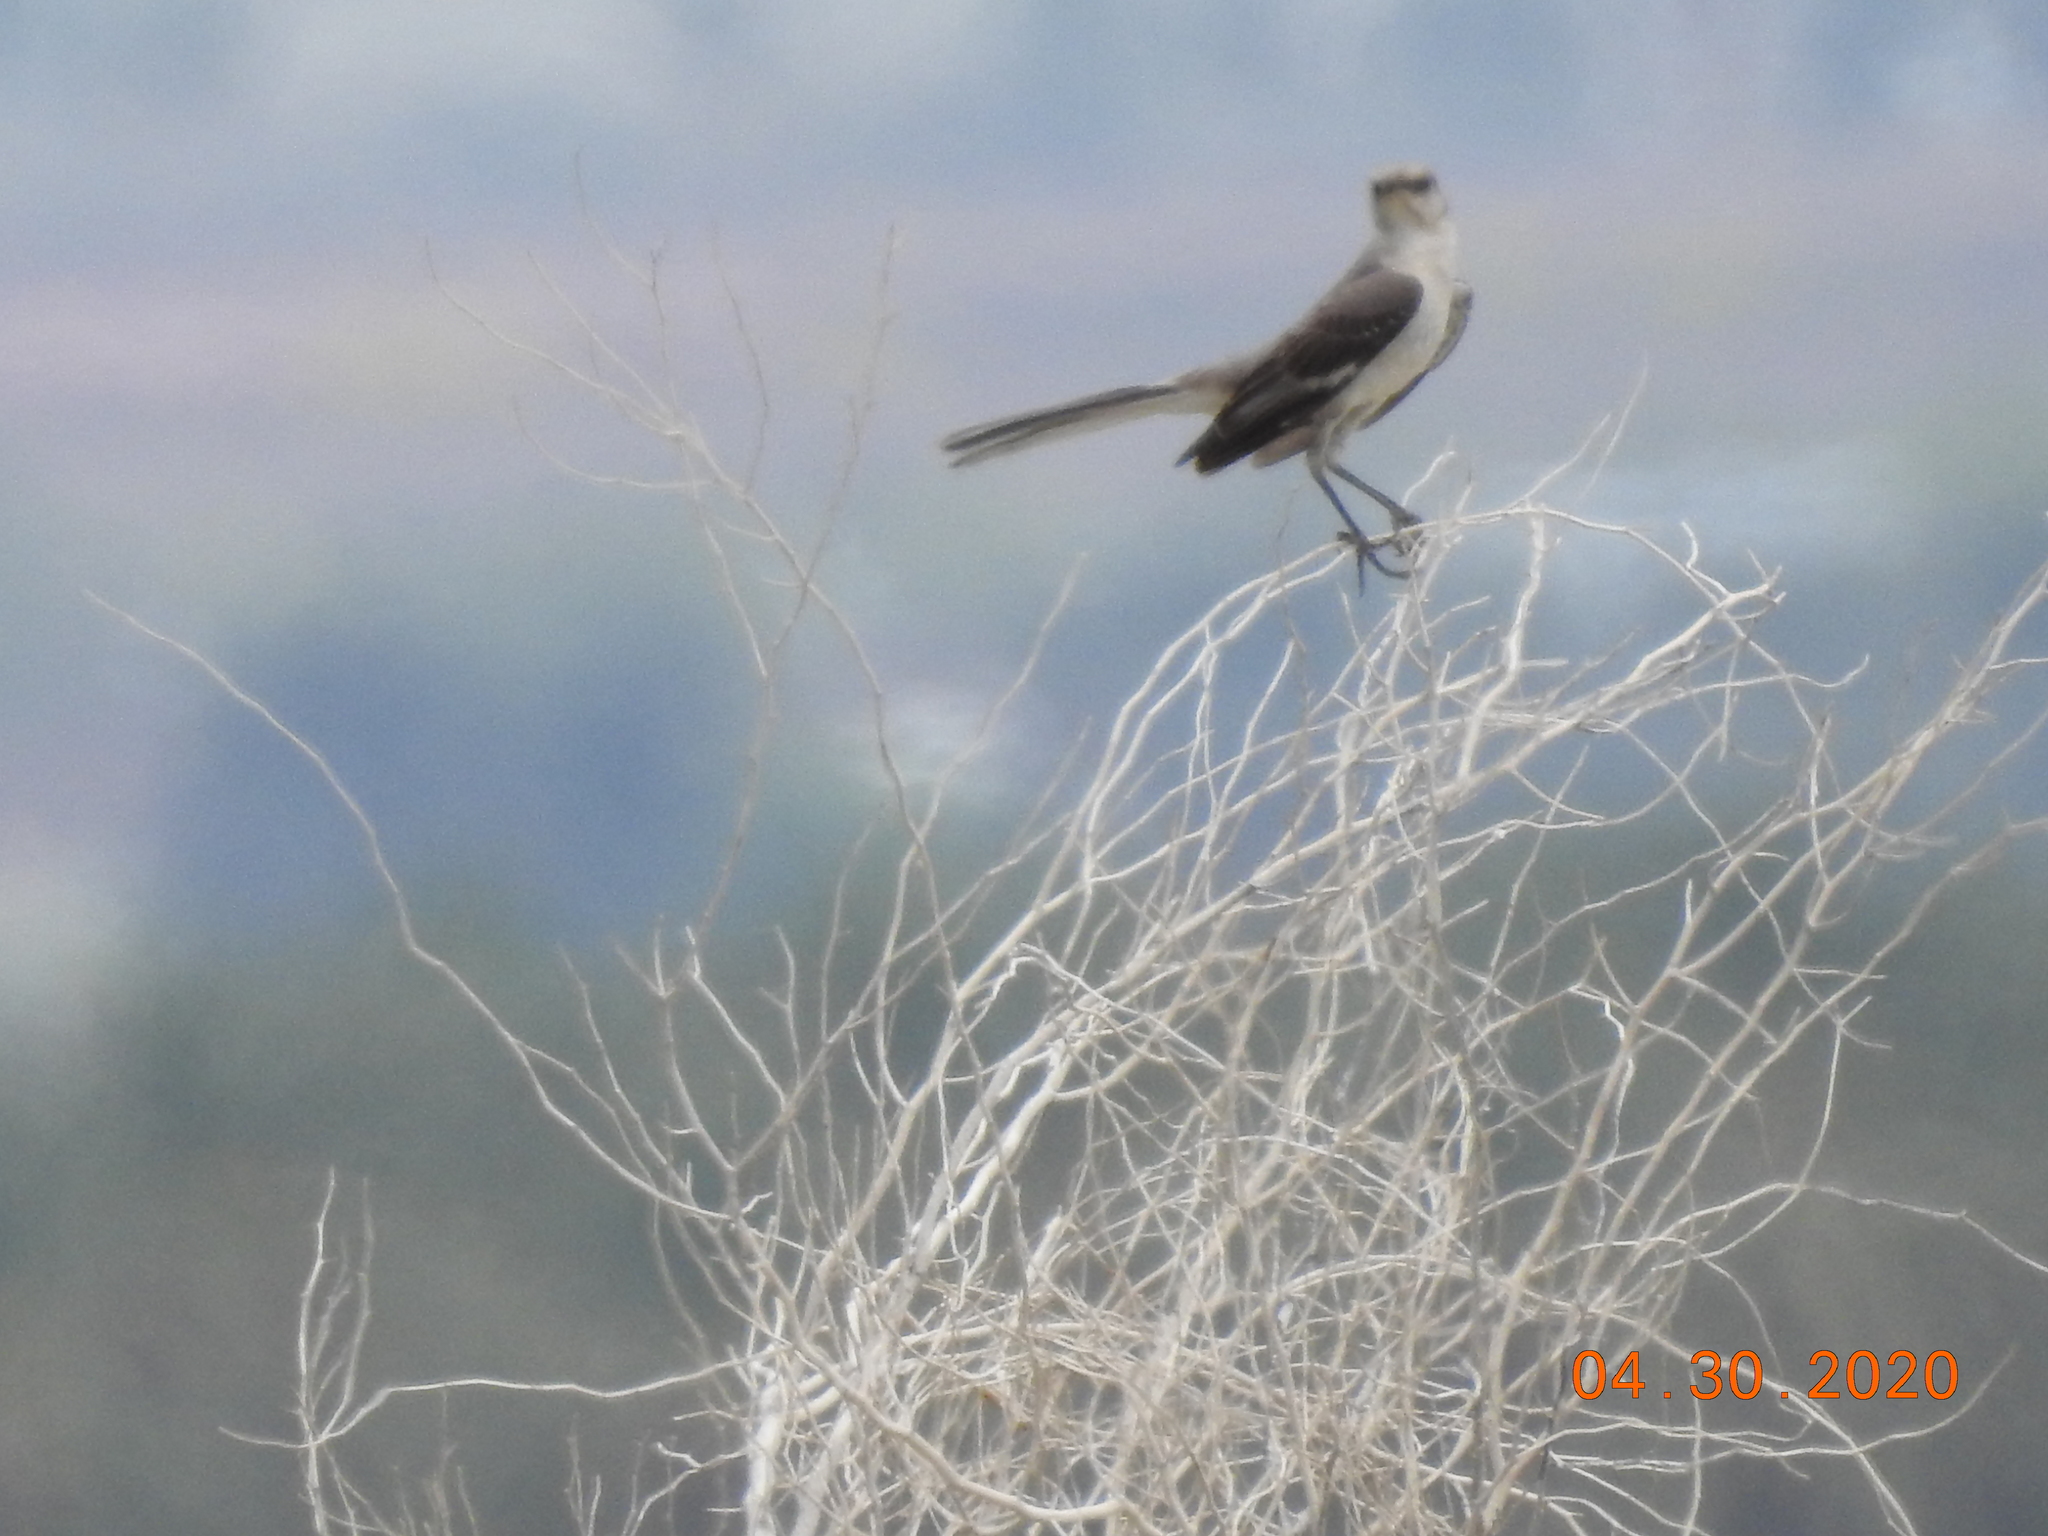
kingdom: Animalia
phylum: Chordata
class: Aves
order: Passeriformes
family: Mimidae
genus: Mimus
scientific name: Mimus polyglottos
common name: Northern mockingbird
